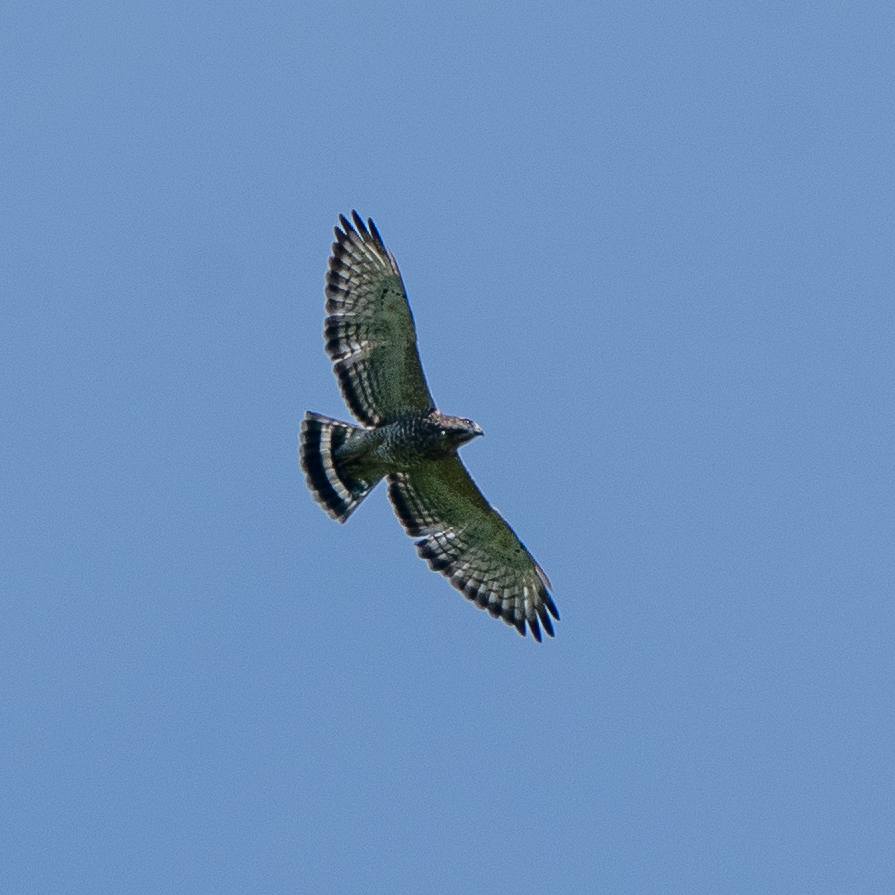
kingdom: Animalia
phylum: Chordata
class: Aves
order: Accipitriformes
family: Accipitridae
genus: Buteo
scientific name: Buteo platypterus
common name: Broad-winged hawk
